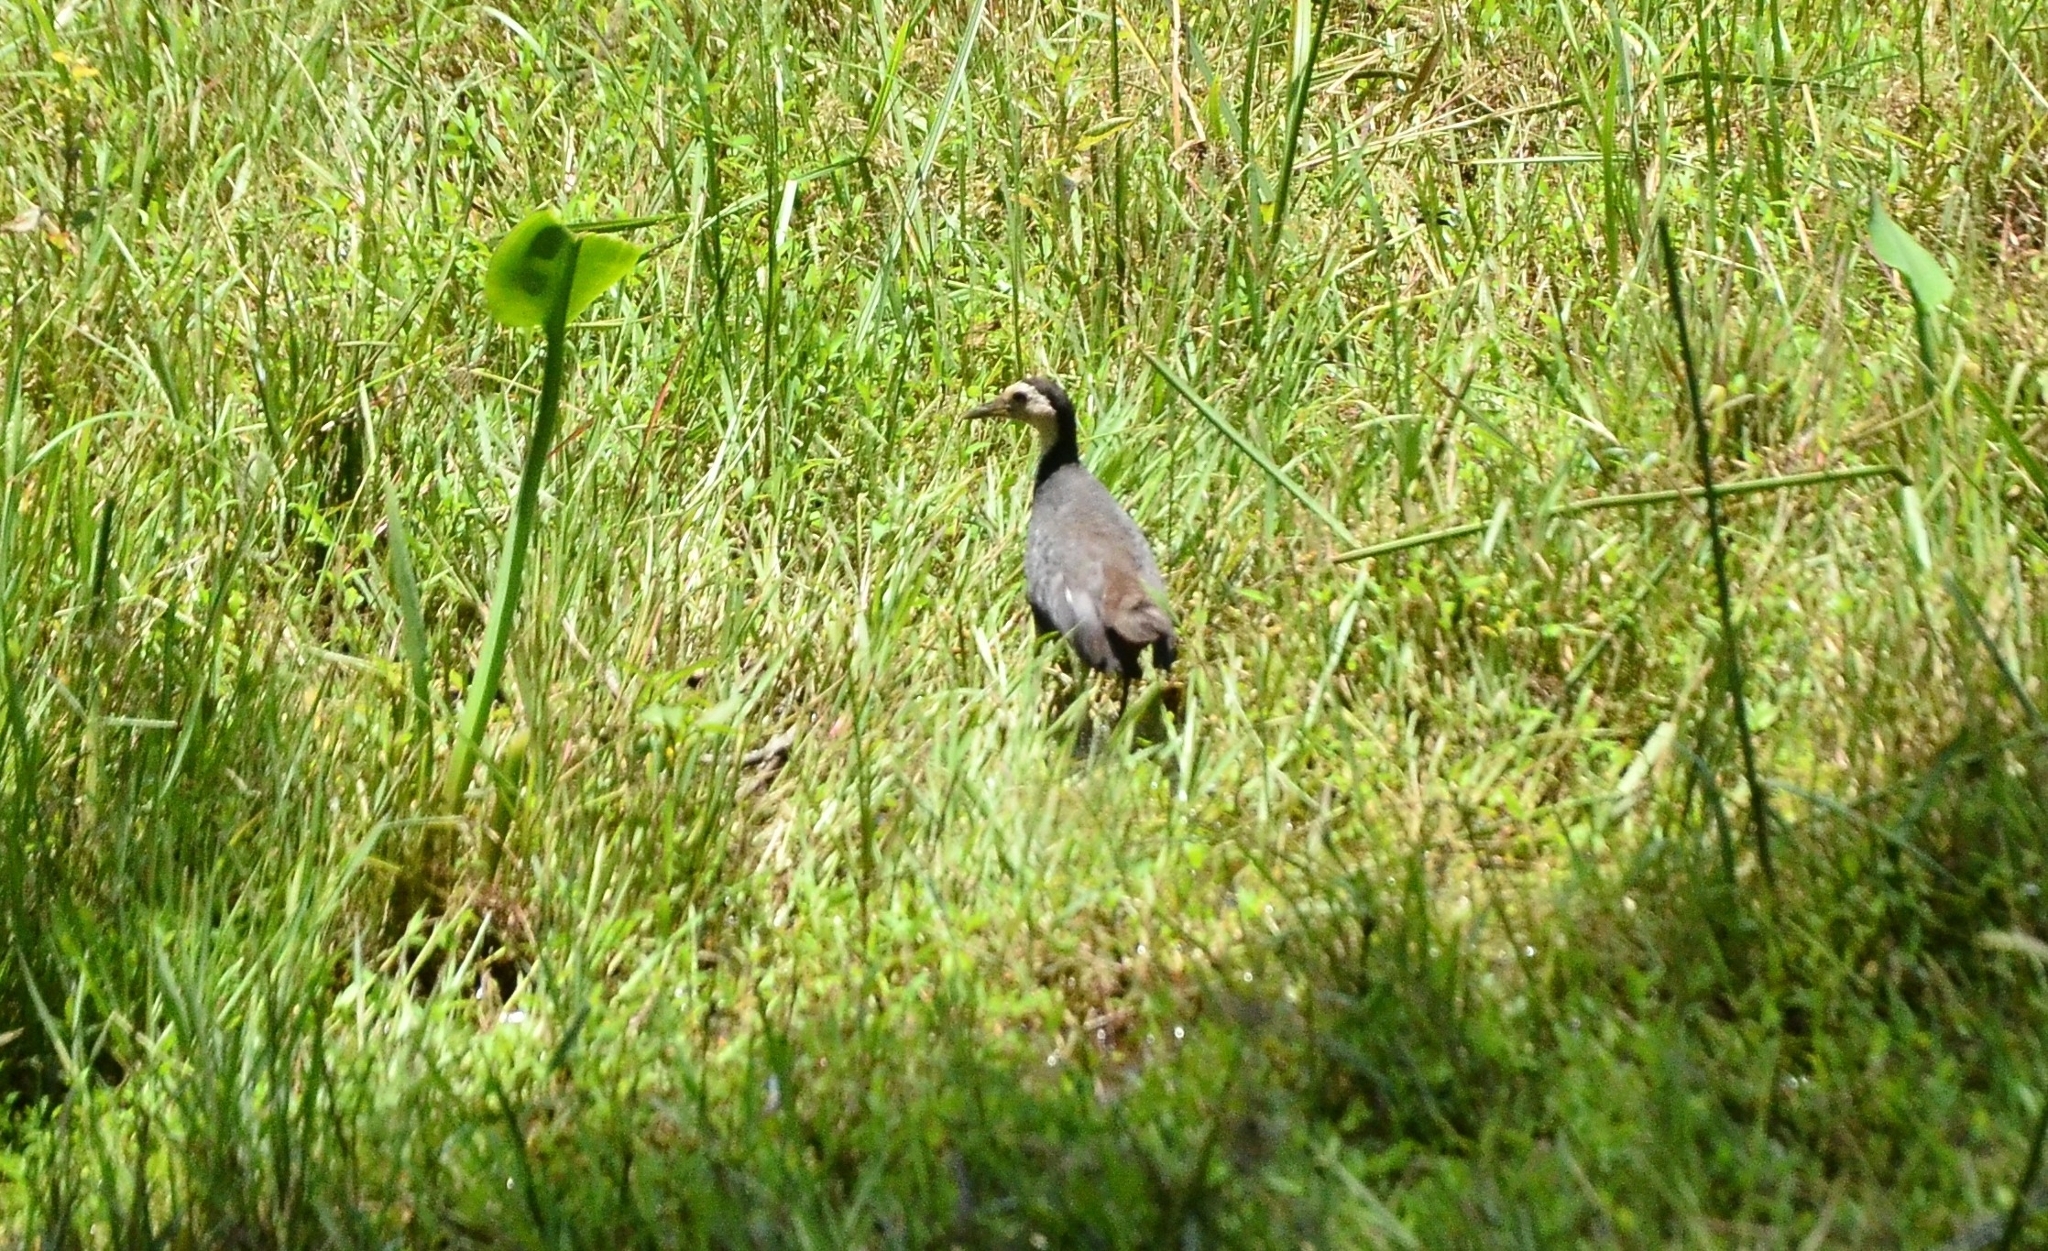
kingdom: Animalia
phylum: Chordata
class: Aves
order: Gruiformes
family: Rallidae
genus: Amaurornis
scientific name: Amaurornis phoenicurus
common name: White-breasted waterhen
